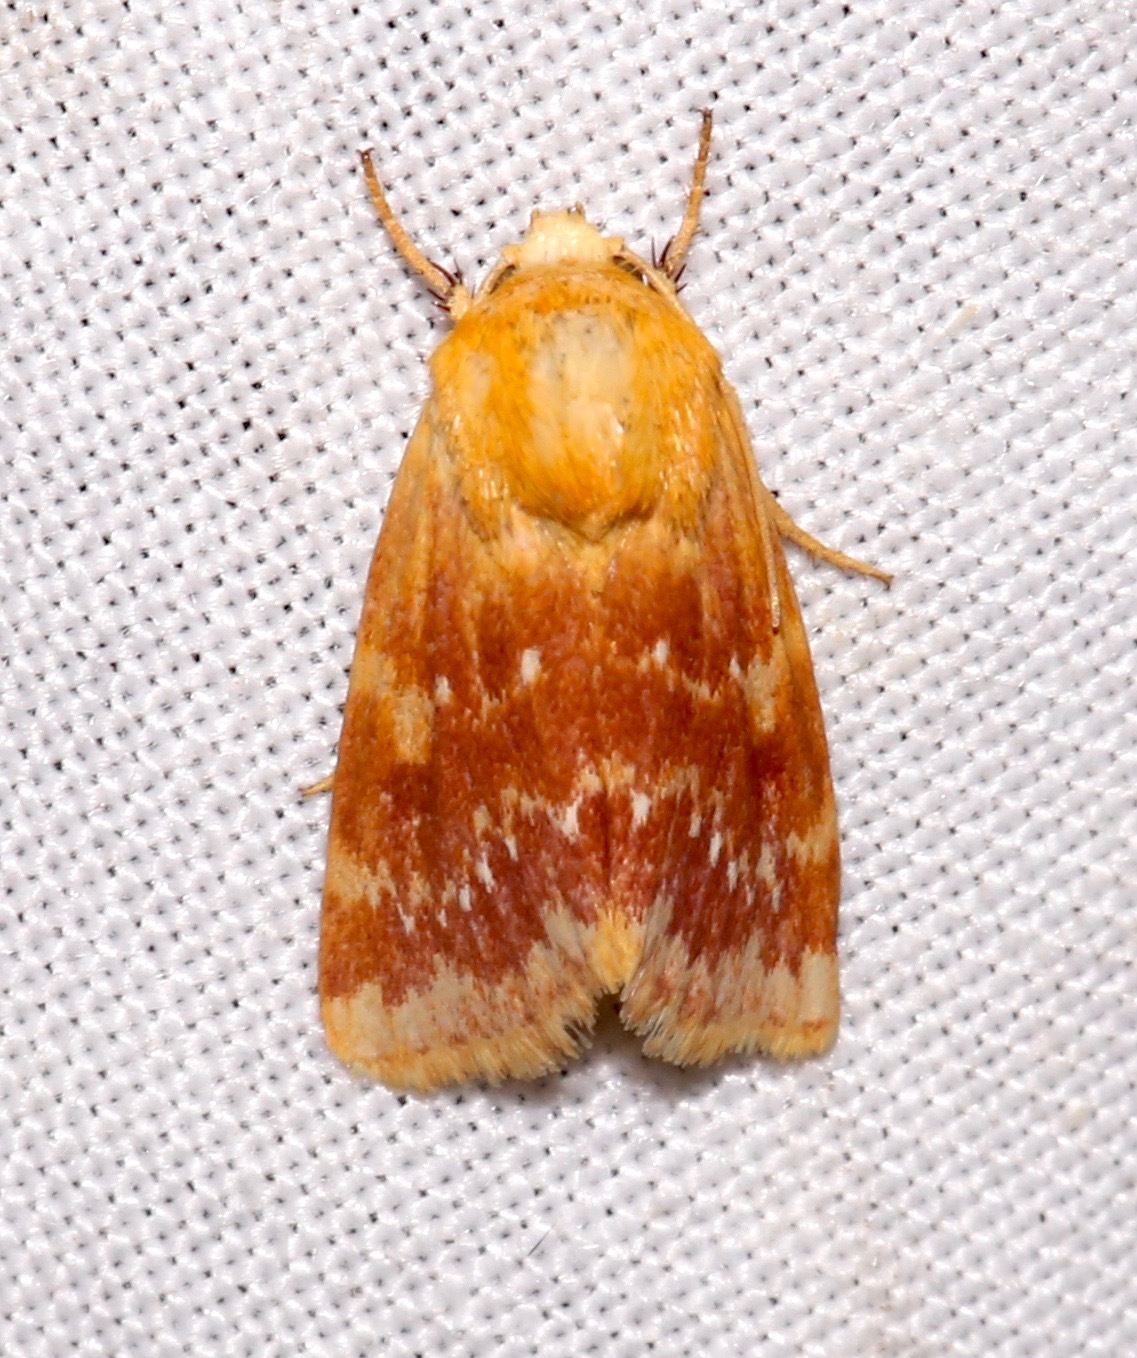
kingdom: Animalia
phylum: Arthropoda
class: Insecta
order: Lepidoptera
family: Noctuidae
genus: Schinia
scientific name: Schinia fulleri
